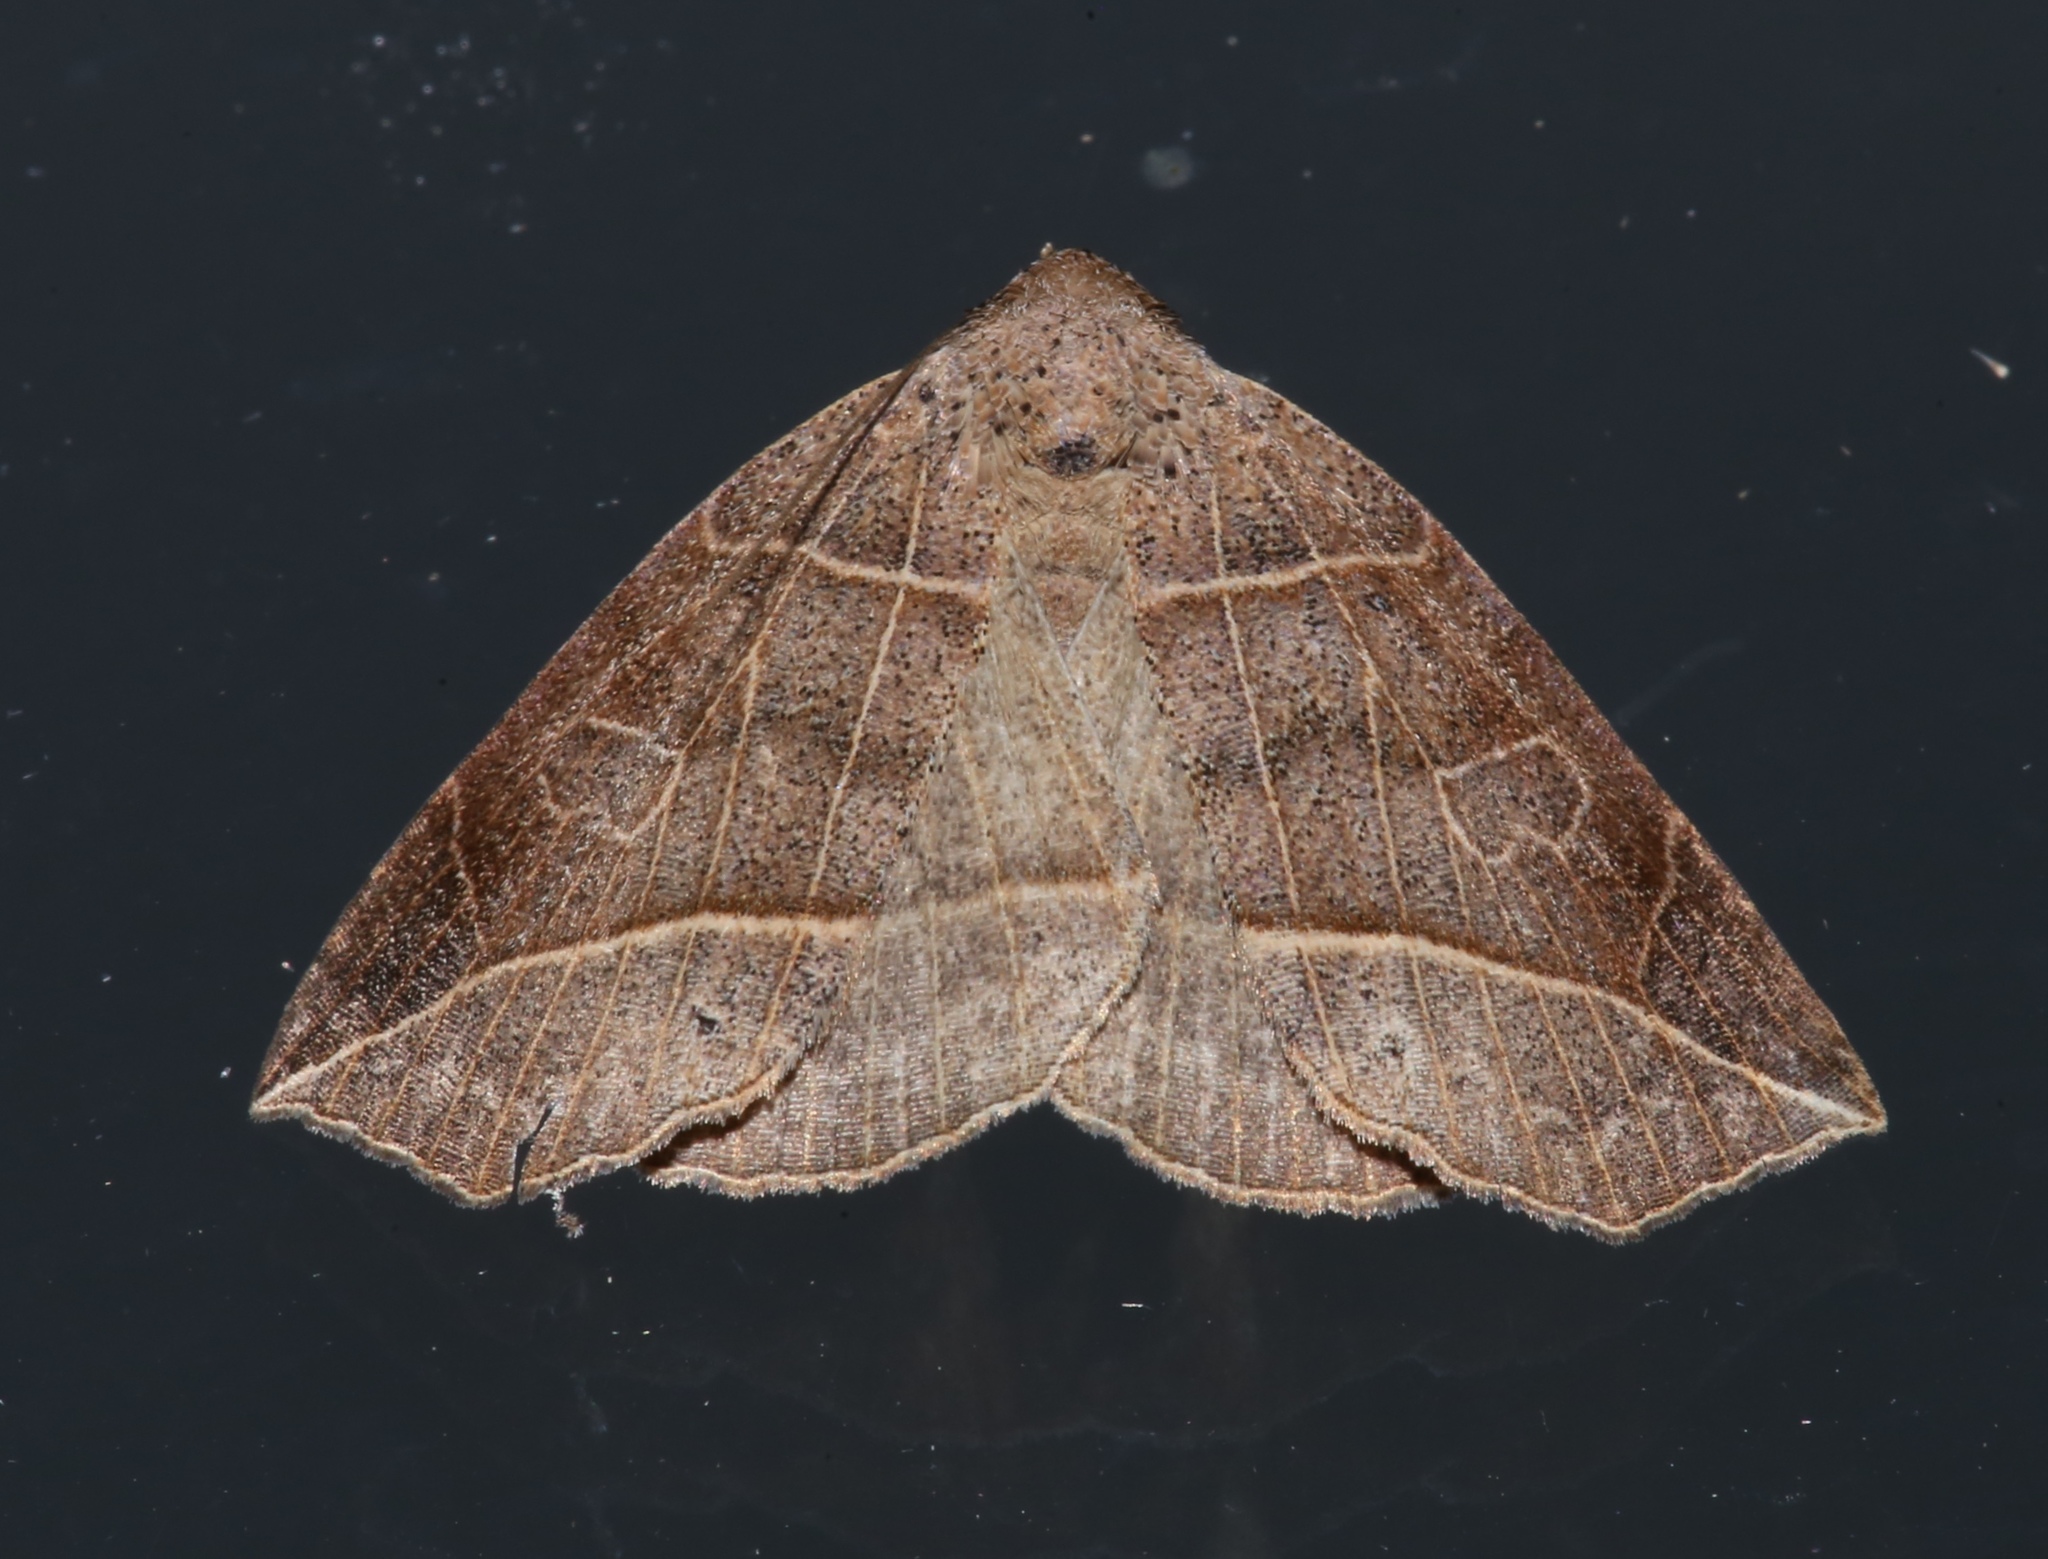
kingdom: Animalia
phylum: Arthropoda
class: Insecta
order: Lepidoptera
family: Erebidae
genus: Isogona
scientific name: Isogona tenuis
